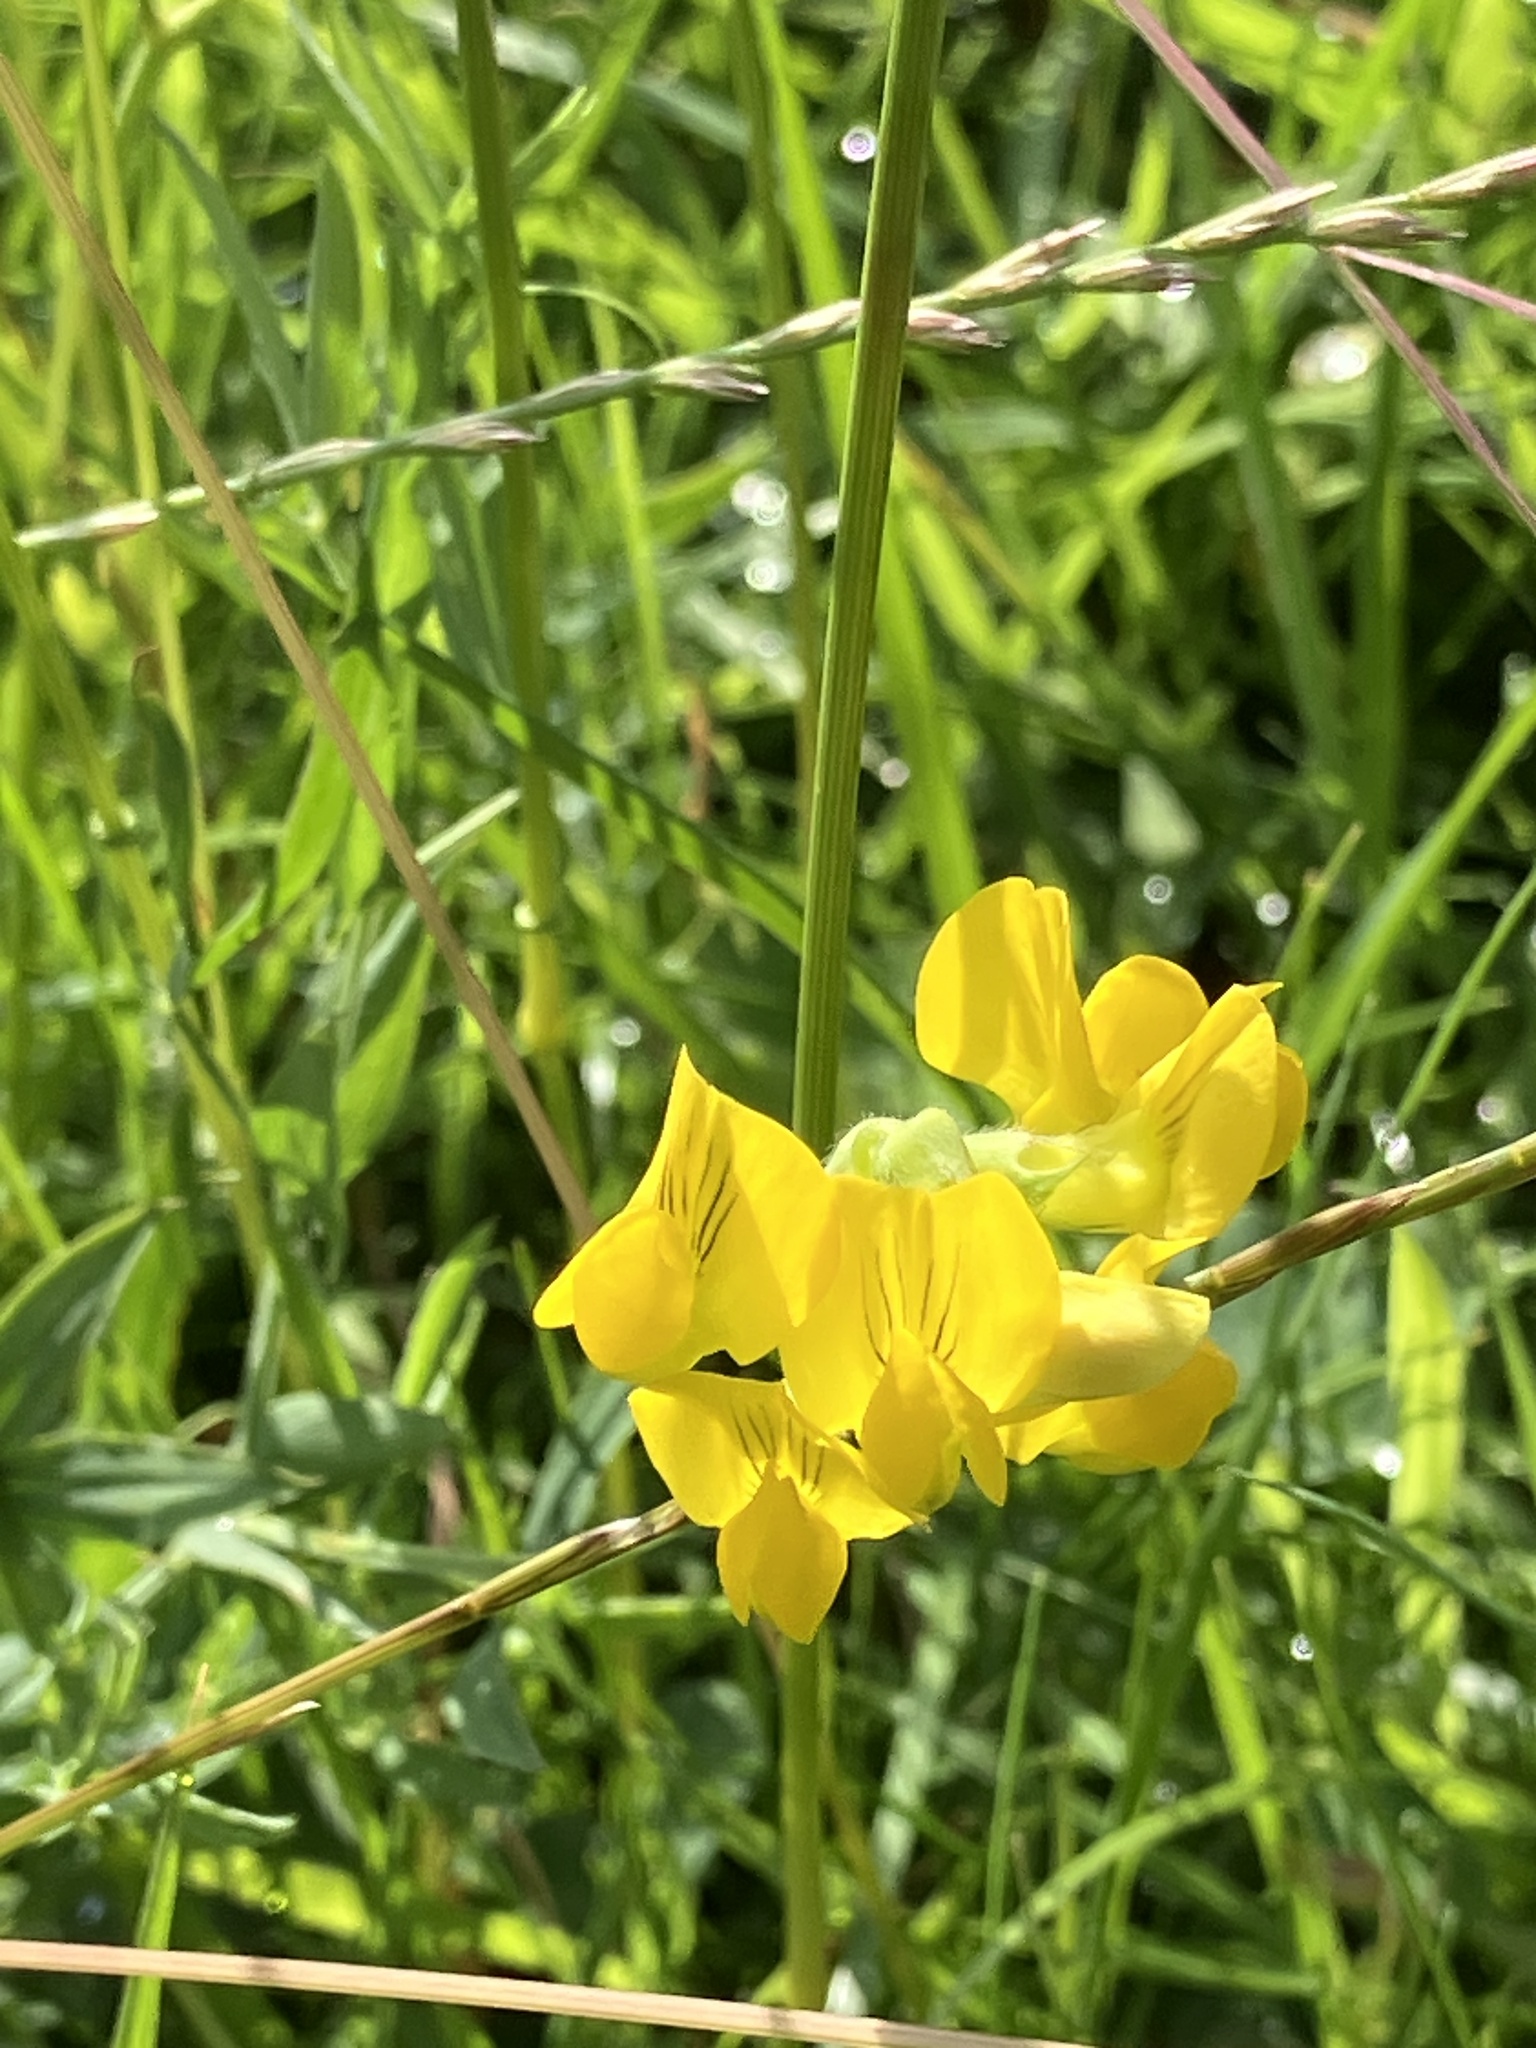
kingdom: Plantae
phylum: Tracheophyta
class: Magnoliopsida
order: Fabales
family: Fabaceae
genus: Lathyrus
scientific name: Lathyrus pratensis
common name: Meadow vetchling
